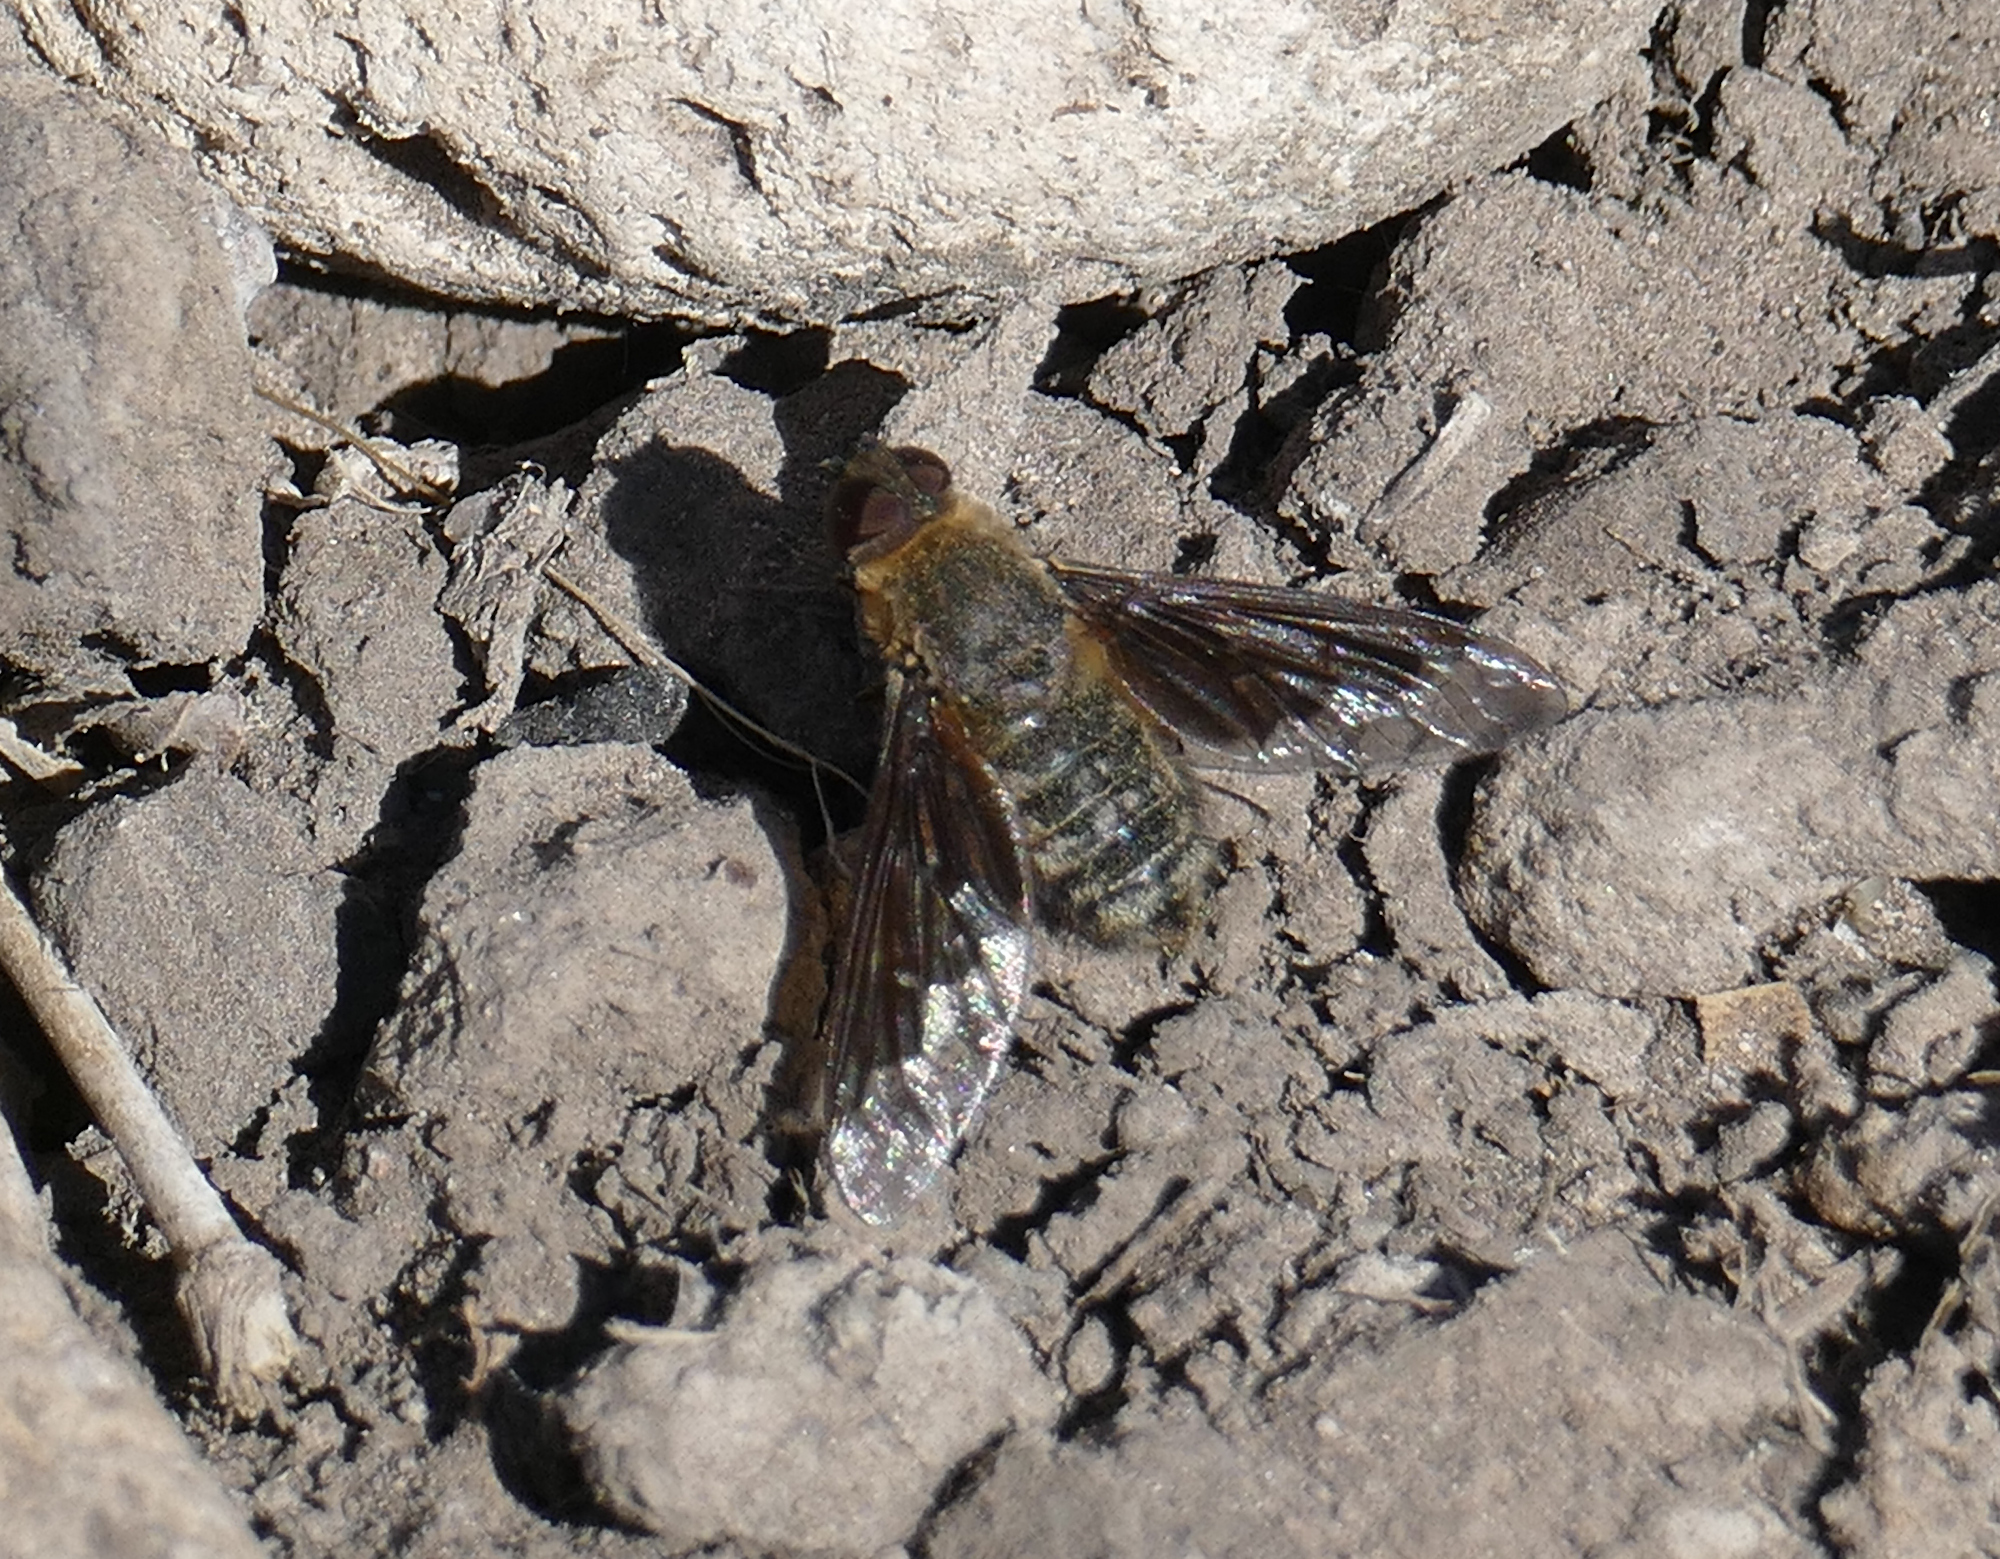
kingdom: Animalia
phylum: Arthropoda
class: Insecta
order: Diptera
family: Bombyliidae
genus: Hemipenthes
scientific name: Hemipenthes morioides
